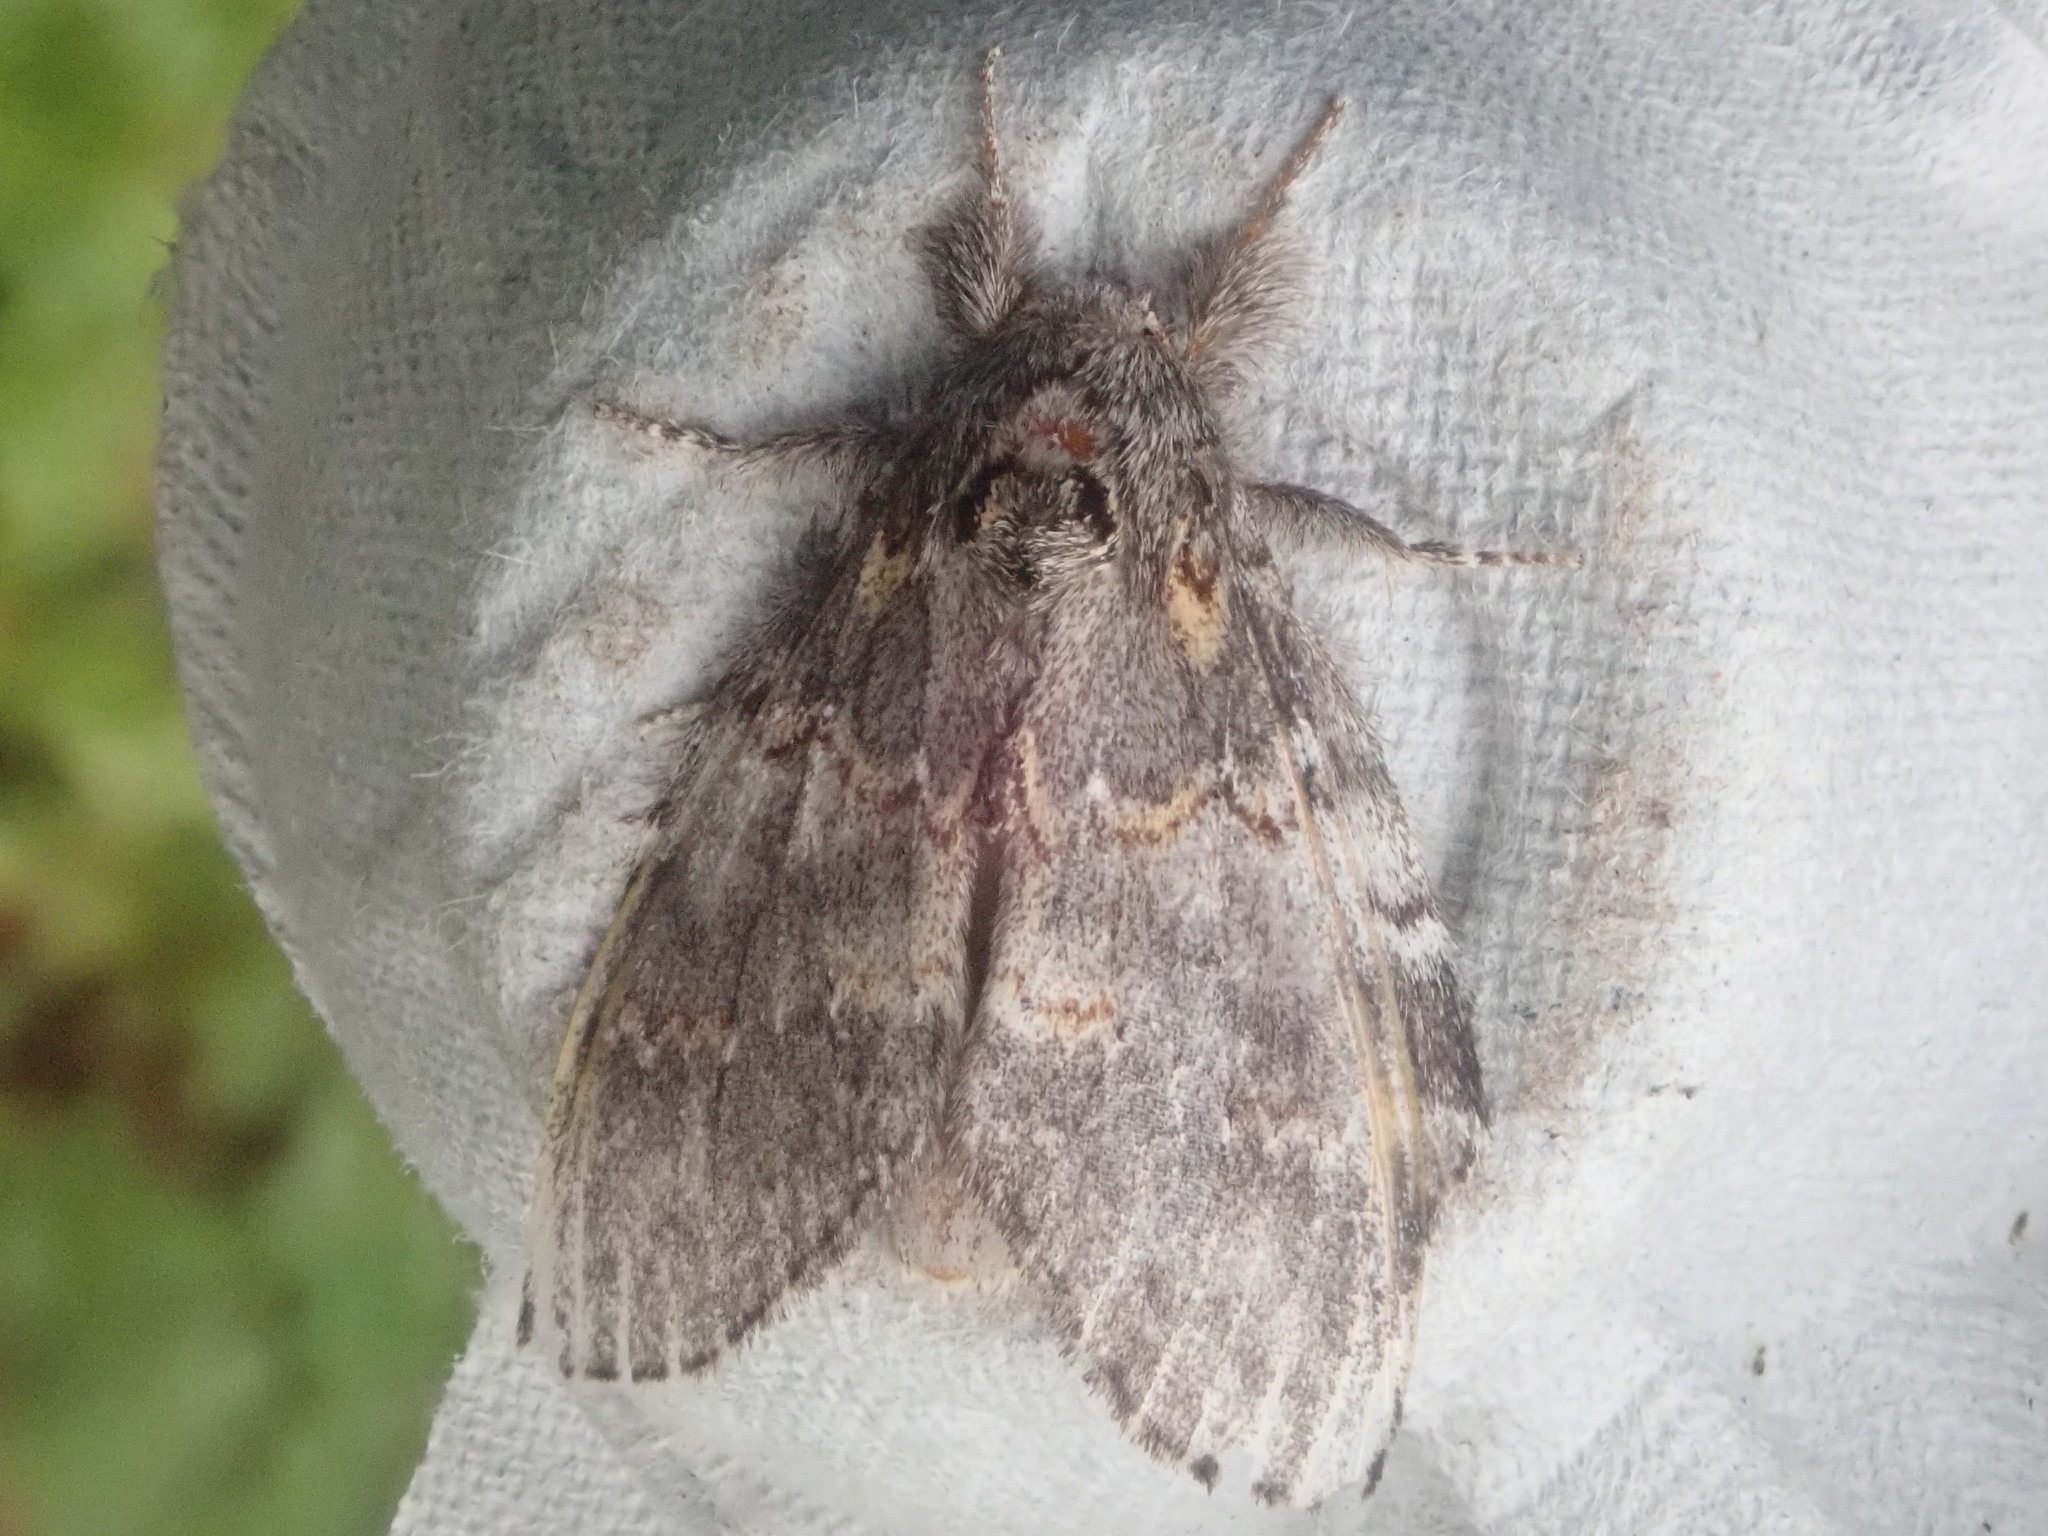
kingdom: Animalia
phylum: Arthropoda
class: Insecta
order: Lepidoptera
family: Notodontidae
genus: Peridea
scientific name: Peridea angulosa
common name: Angulose prominent
